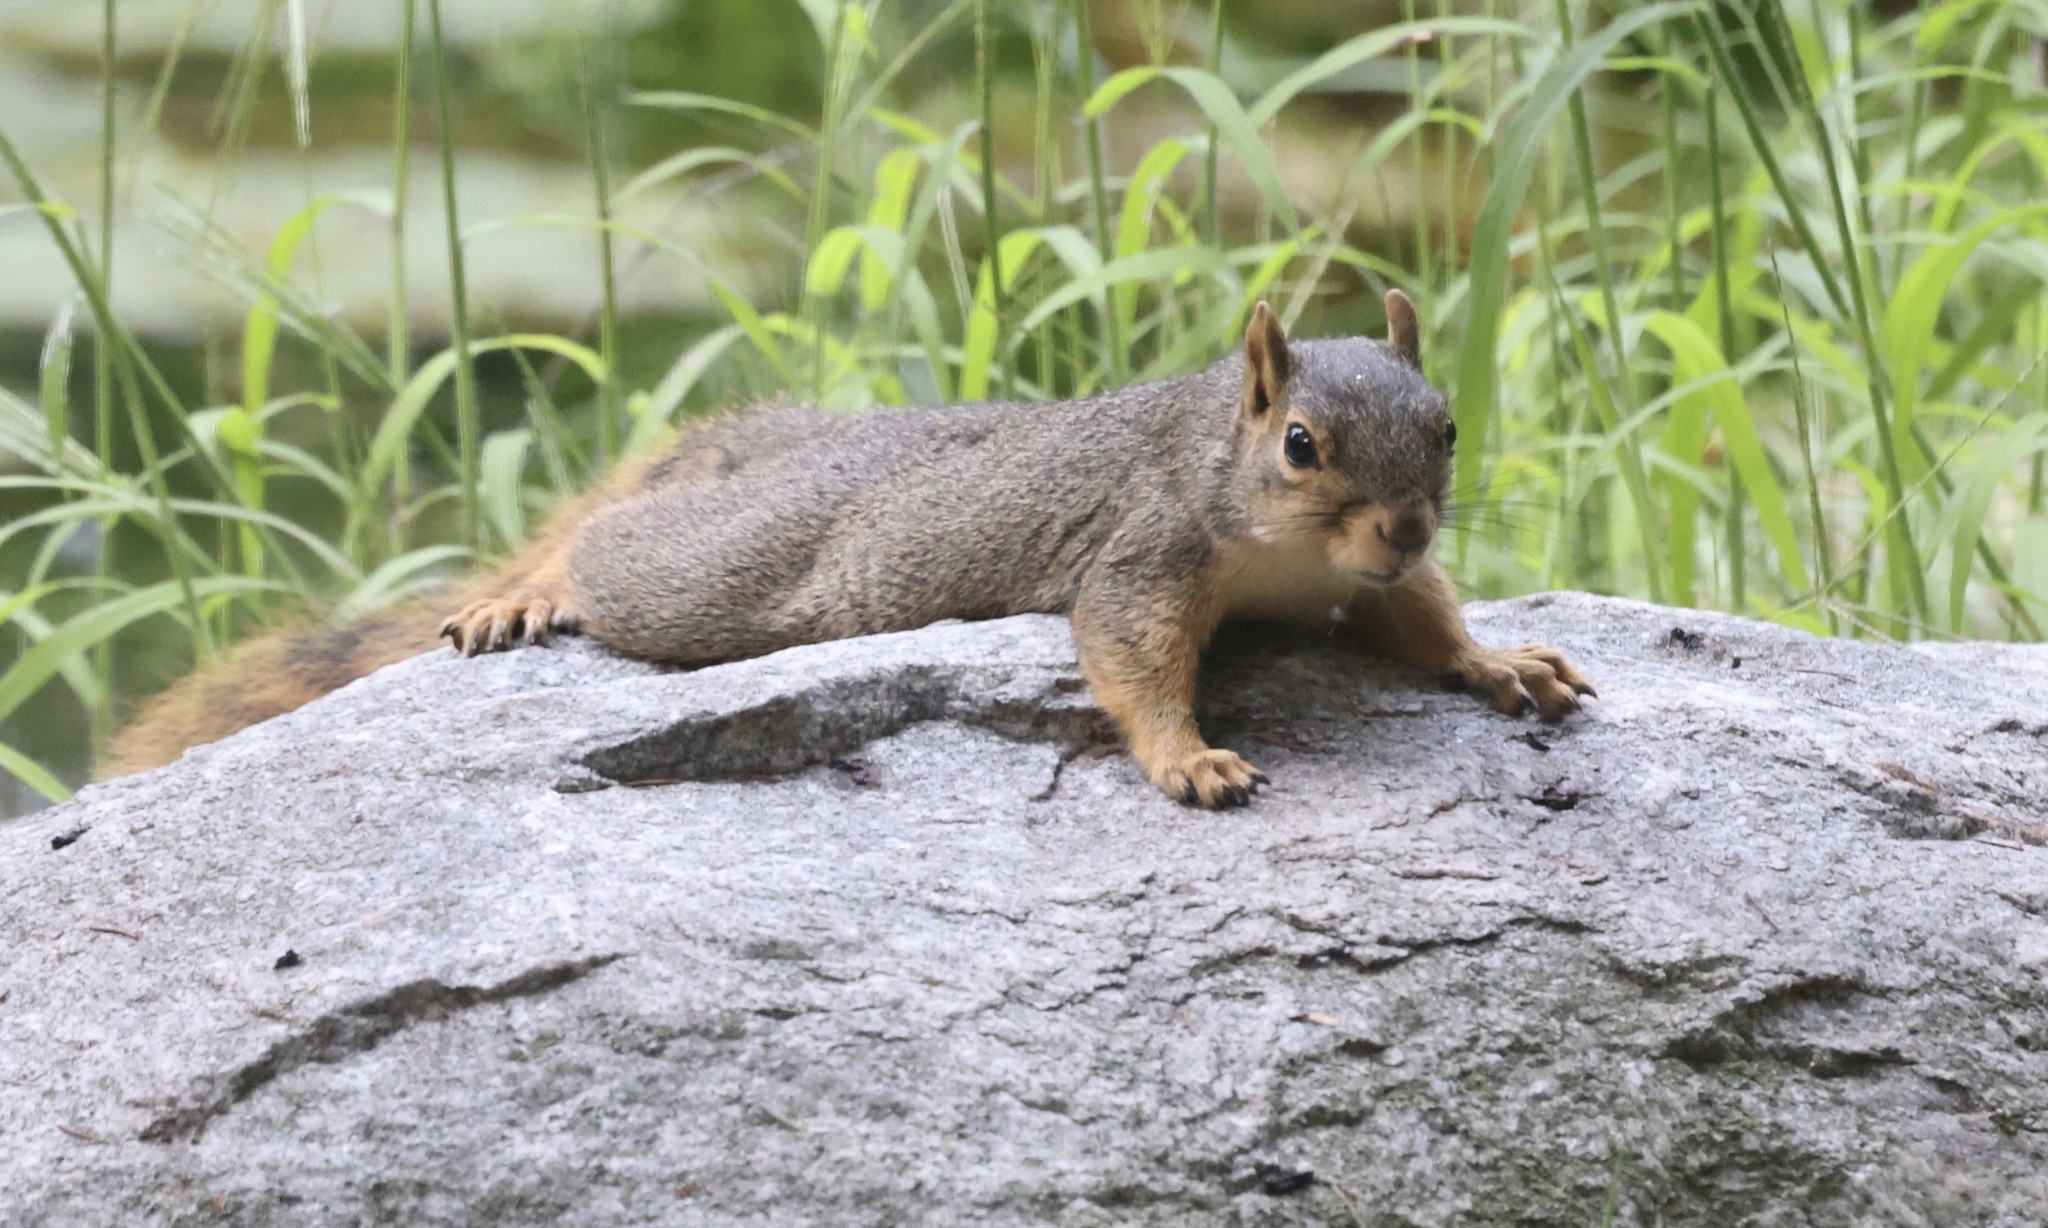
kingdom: Animalia
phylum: Chordata
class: Mammalia
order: Rodentia
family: Sciuridae
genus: Sciurus
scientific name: Sciurus niger
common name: Fox squirrel
